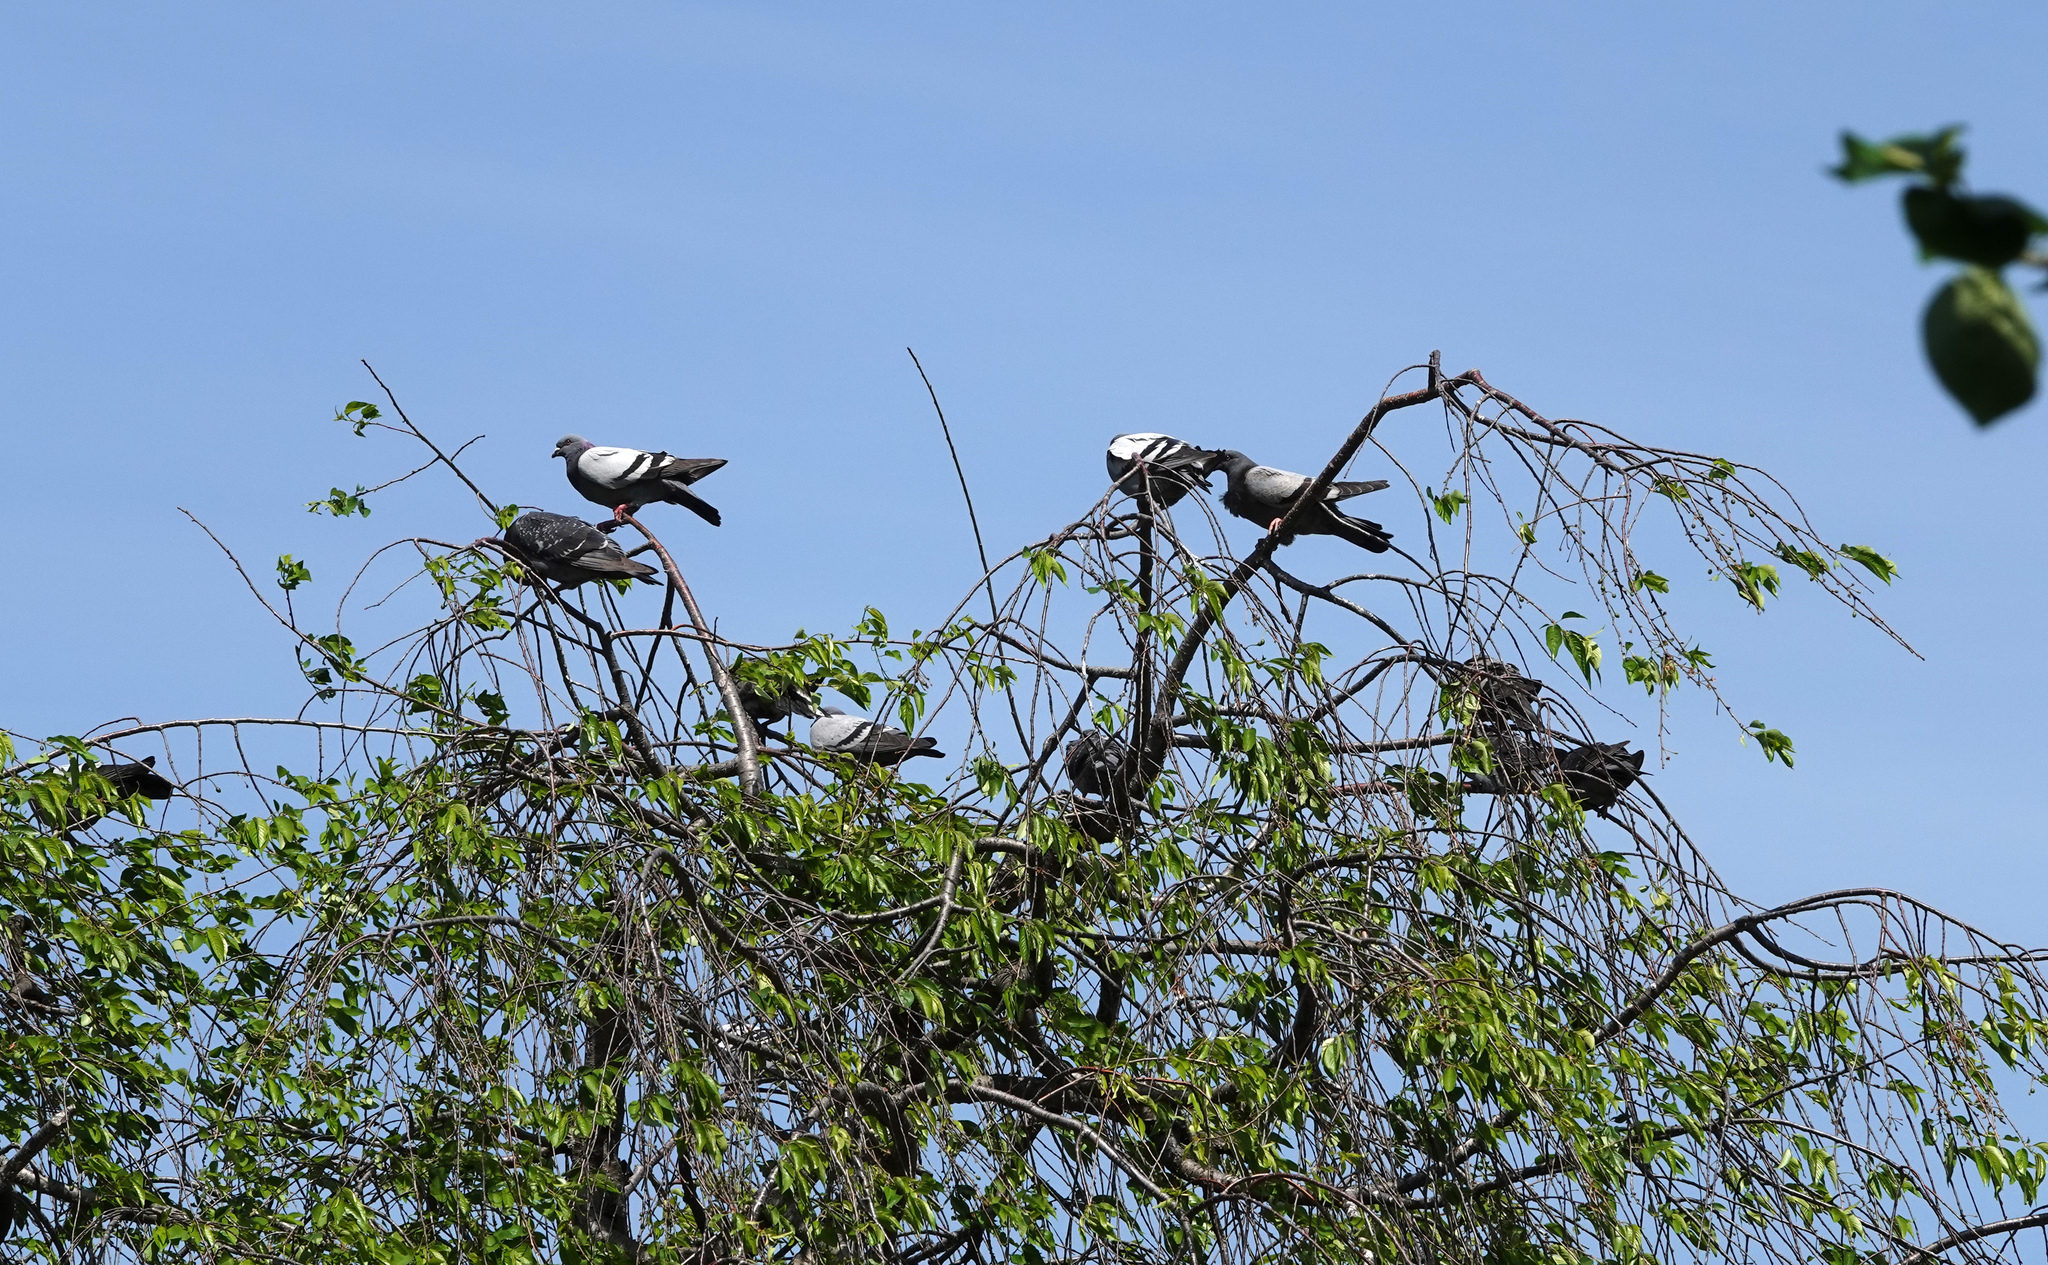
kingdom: Animalia
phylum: Chordata
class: Aves
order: Columbiformes
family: Columbidae
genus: Columba
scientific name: Columba livia
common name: Rock pigeon
